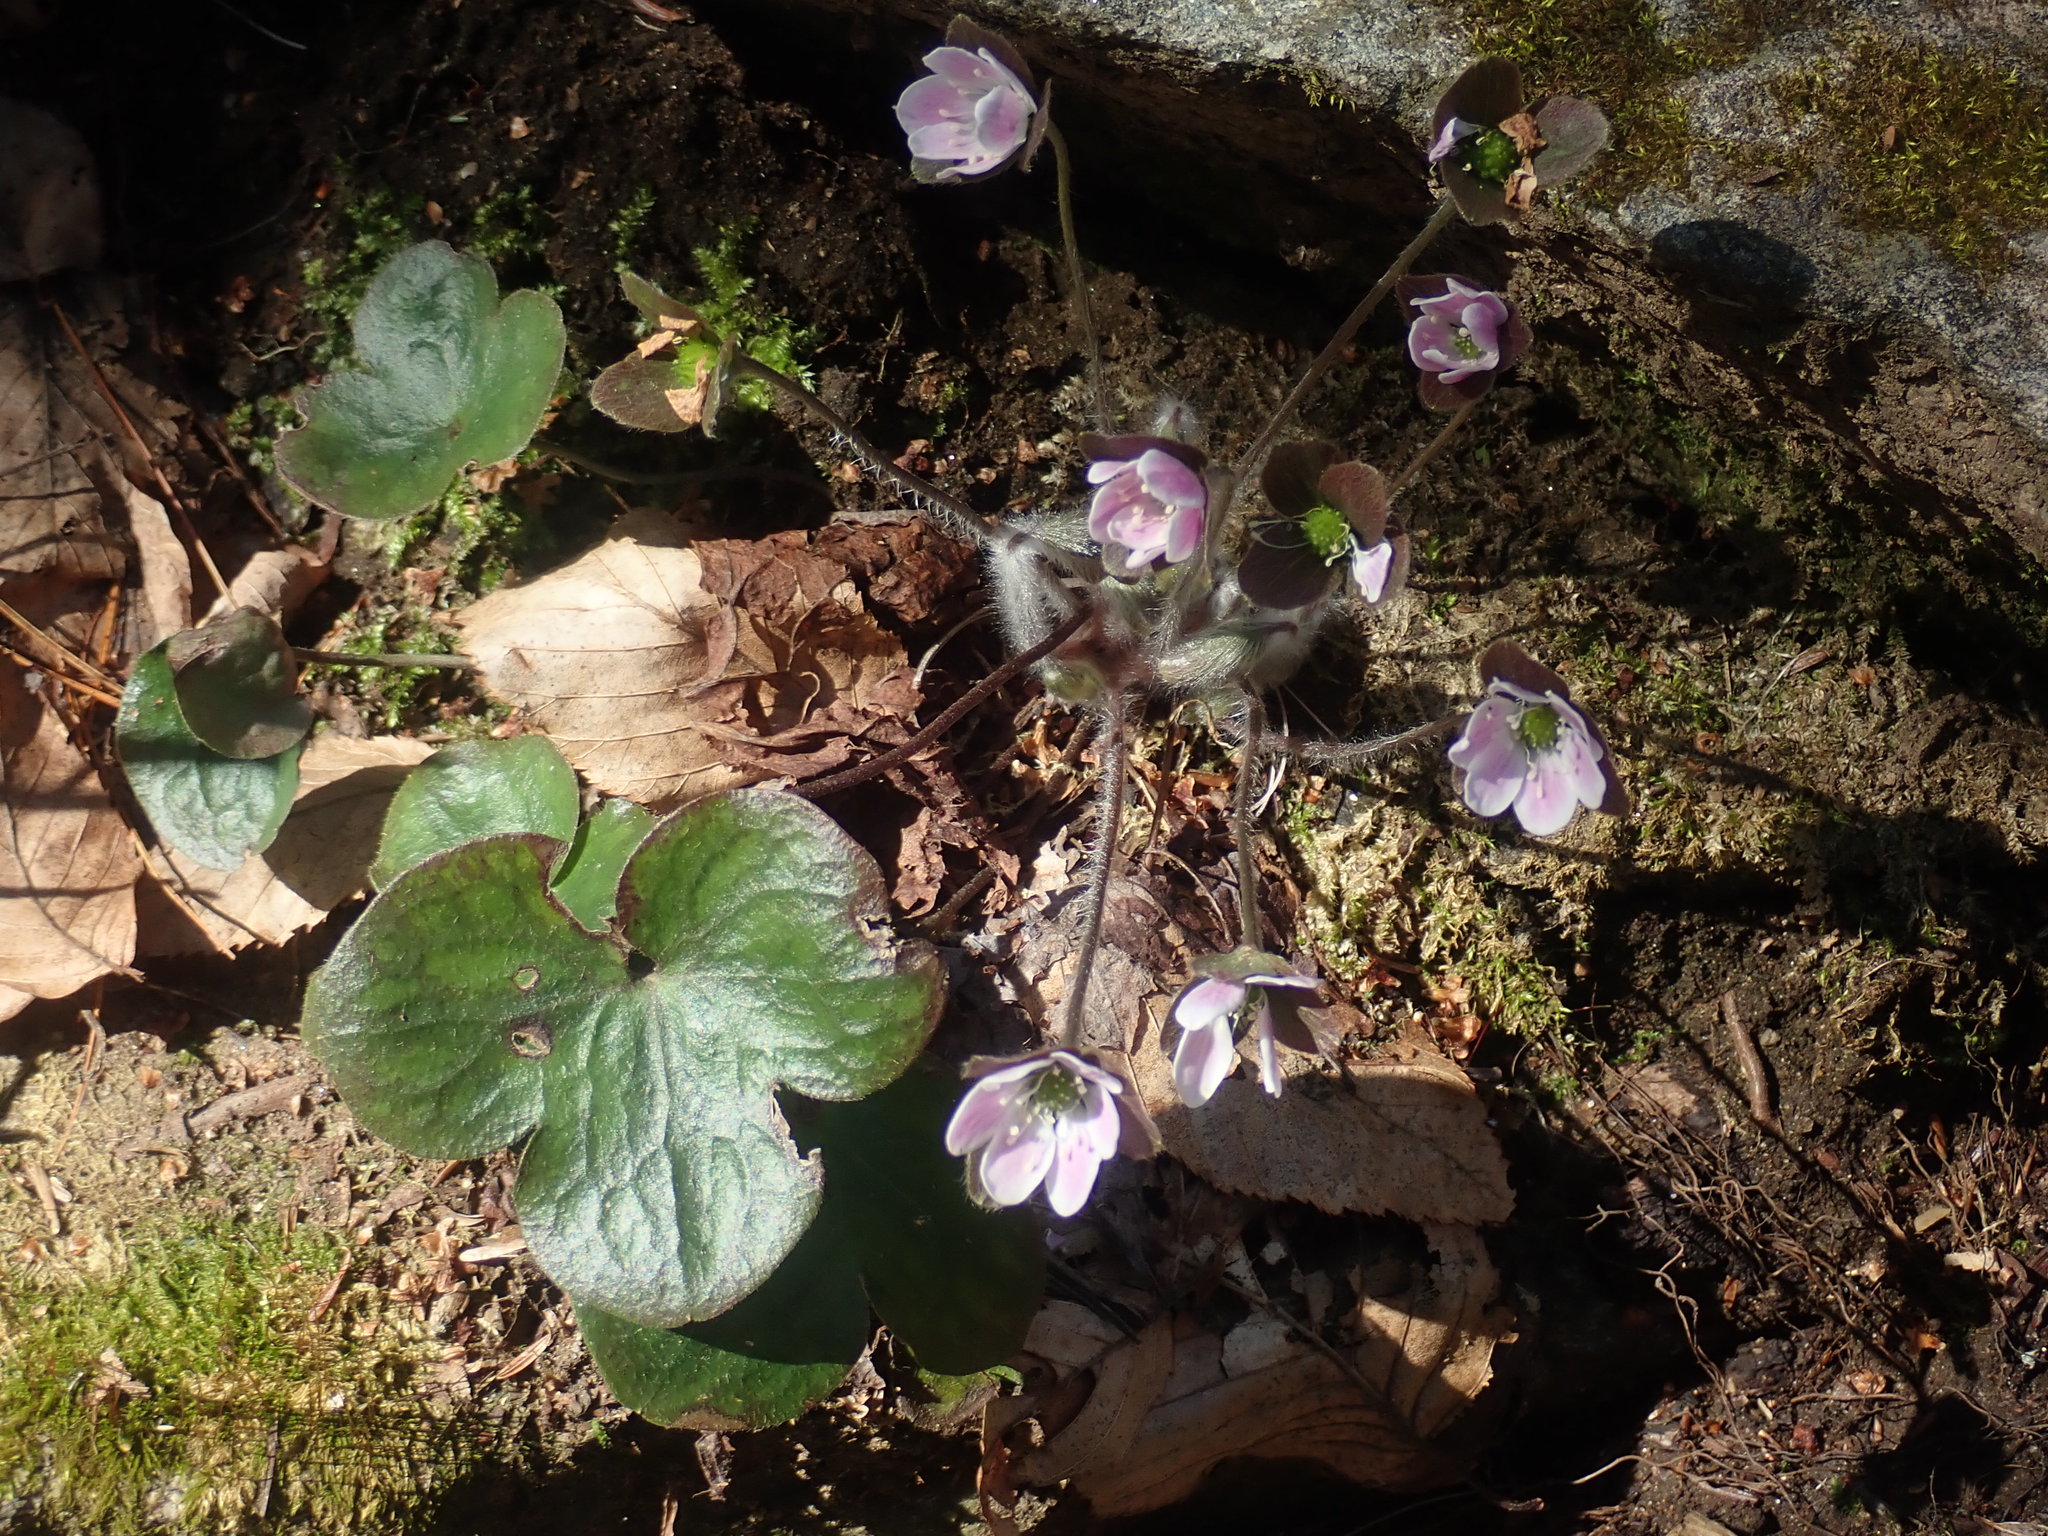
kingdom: Plantae
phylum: Tracheophyta
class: Magnoliopsida
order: Ranunculales
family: Ranunculaceae
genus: Hepatica
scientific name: Hepatica americana
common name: American hepatica
